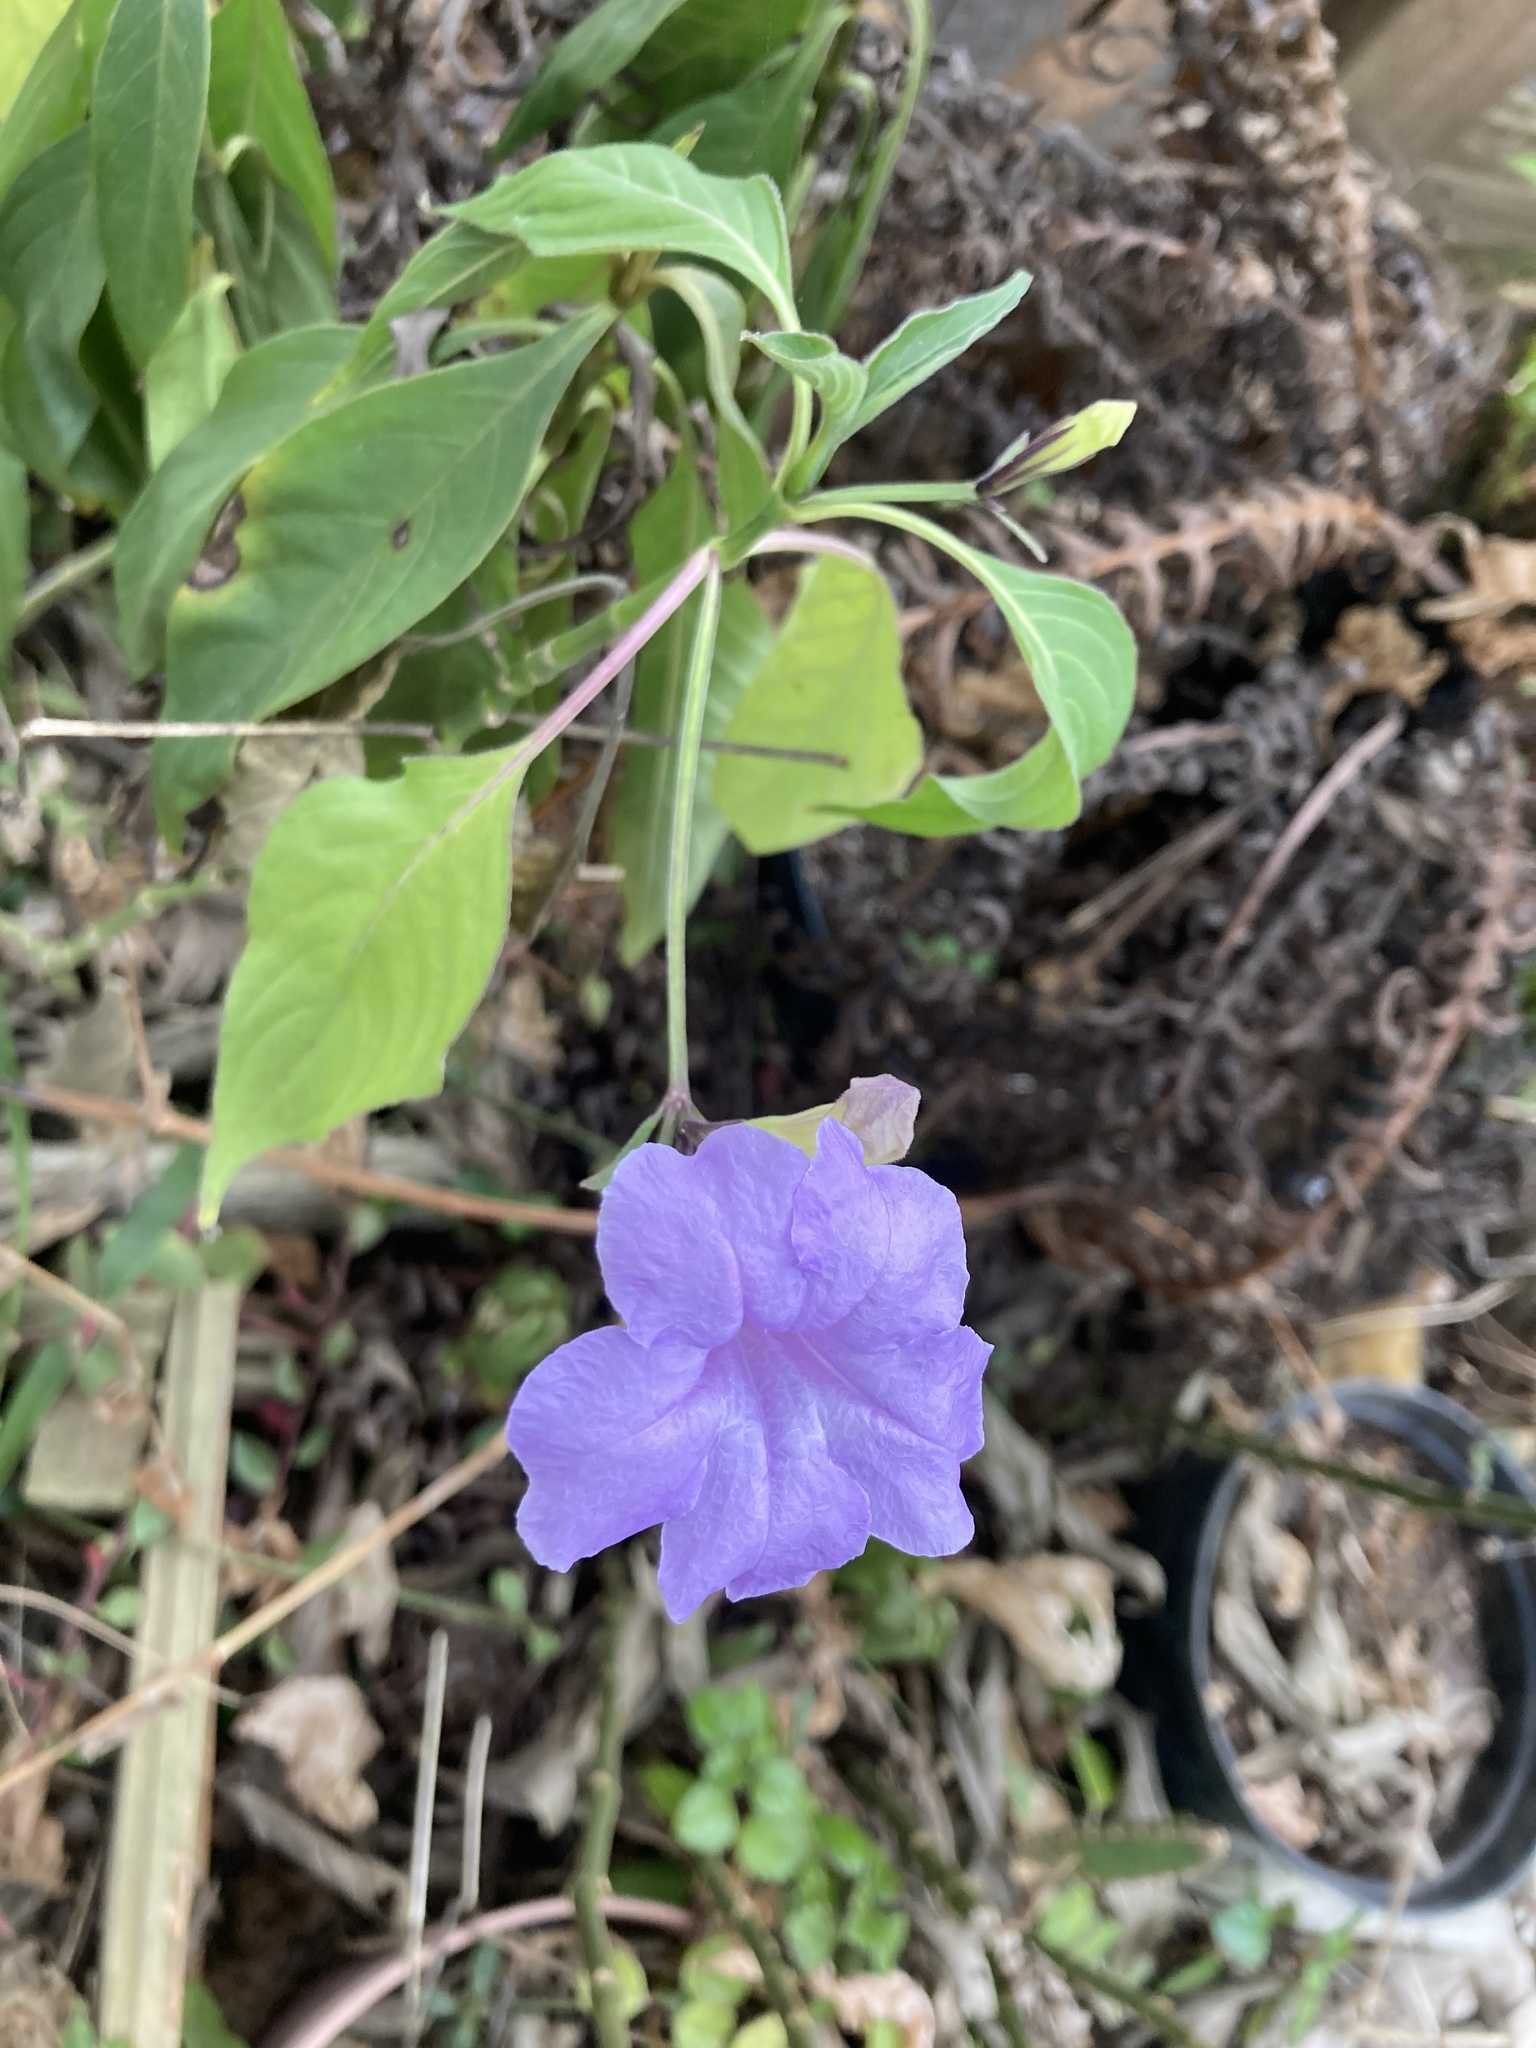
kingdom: Plantae
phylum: Tracheophyta
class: Magnoliopsida
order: Lamiales
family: Acanthaceae
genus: Ruellia
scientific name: Ruellia breedlovei
